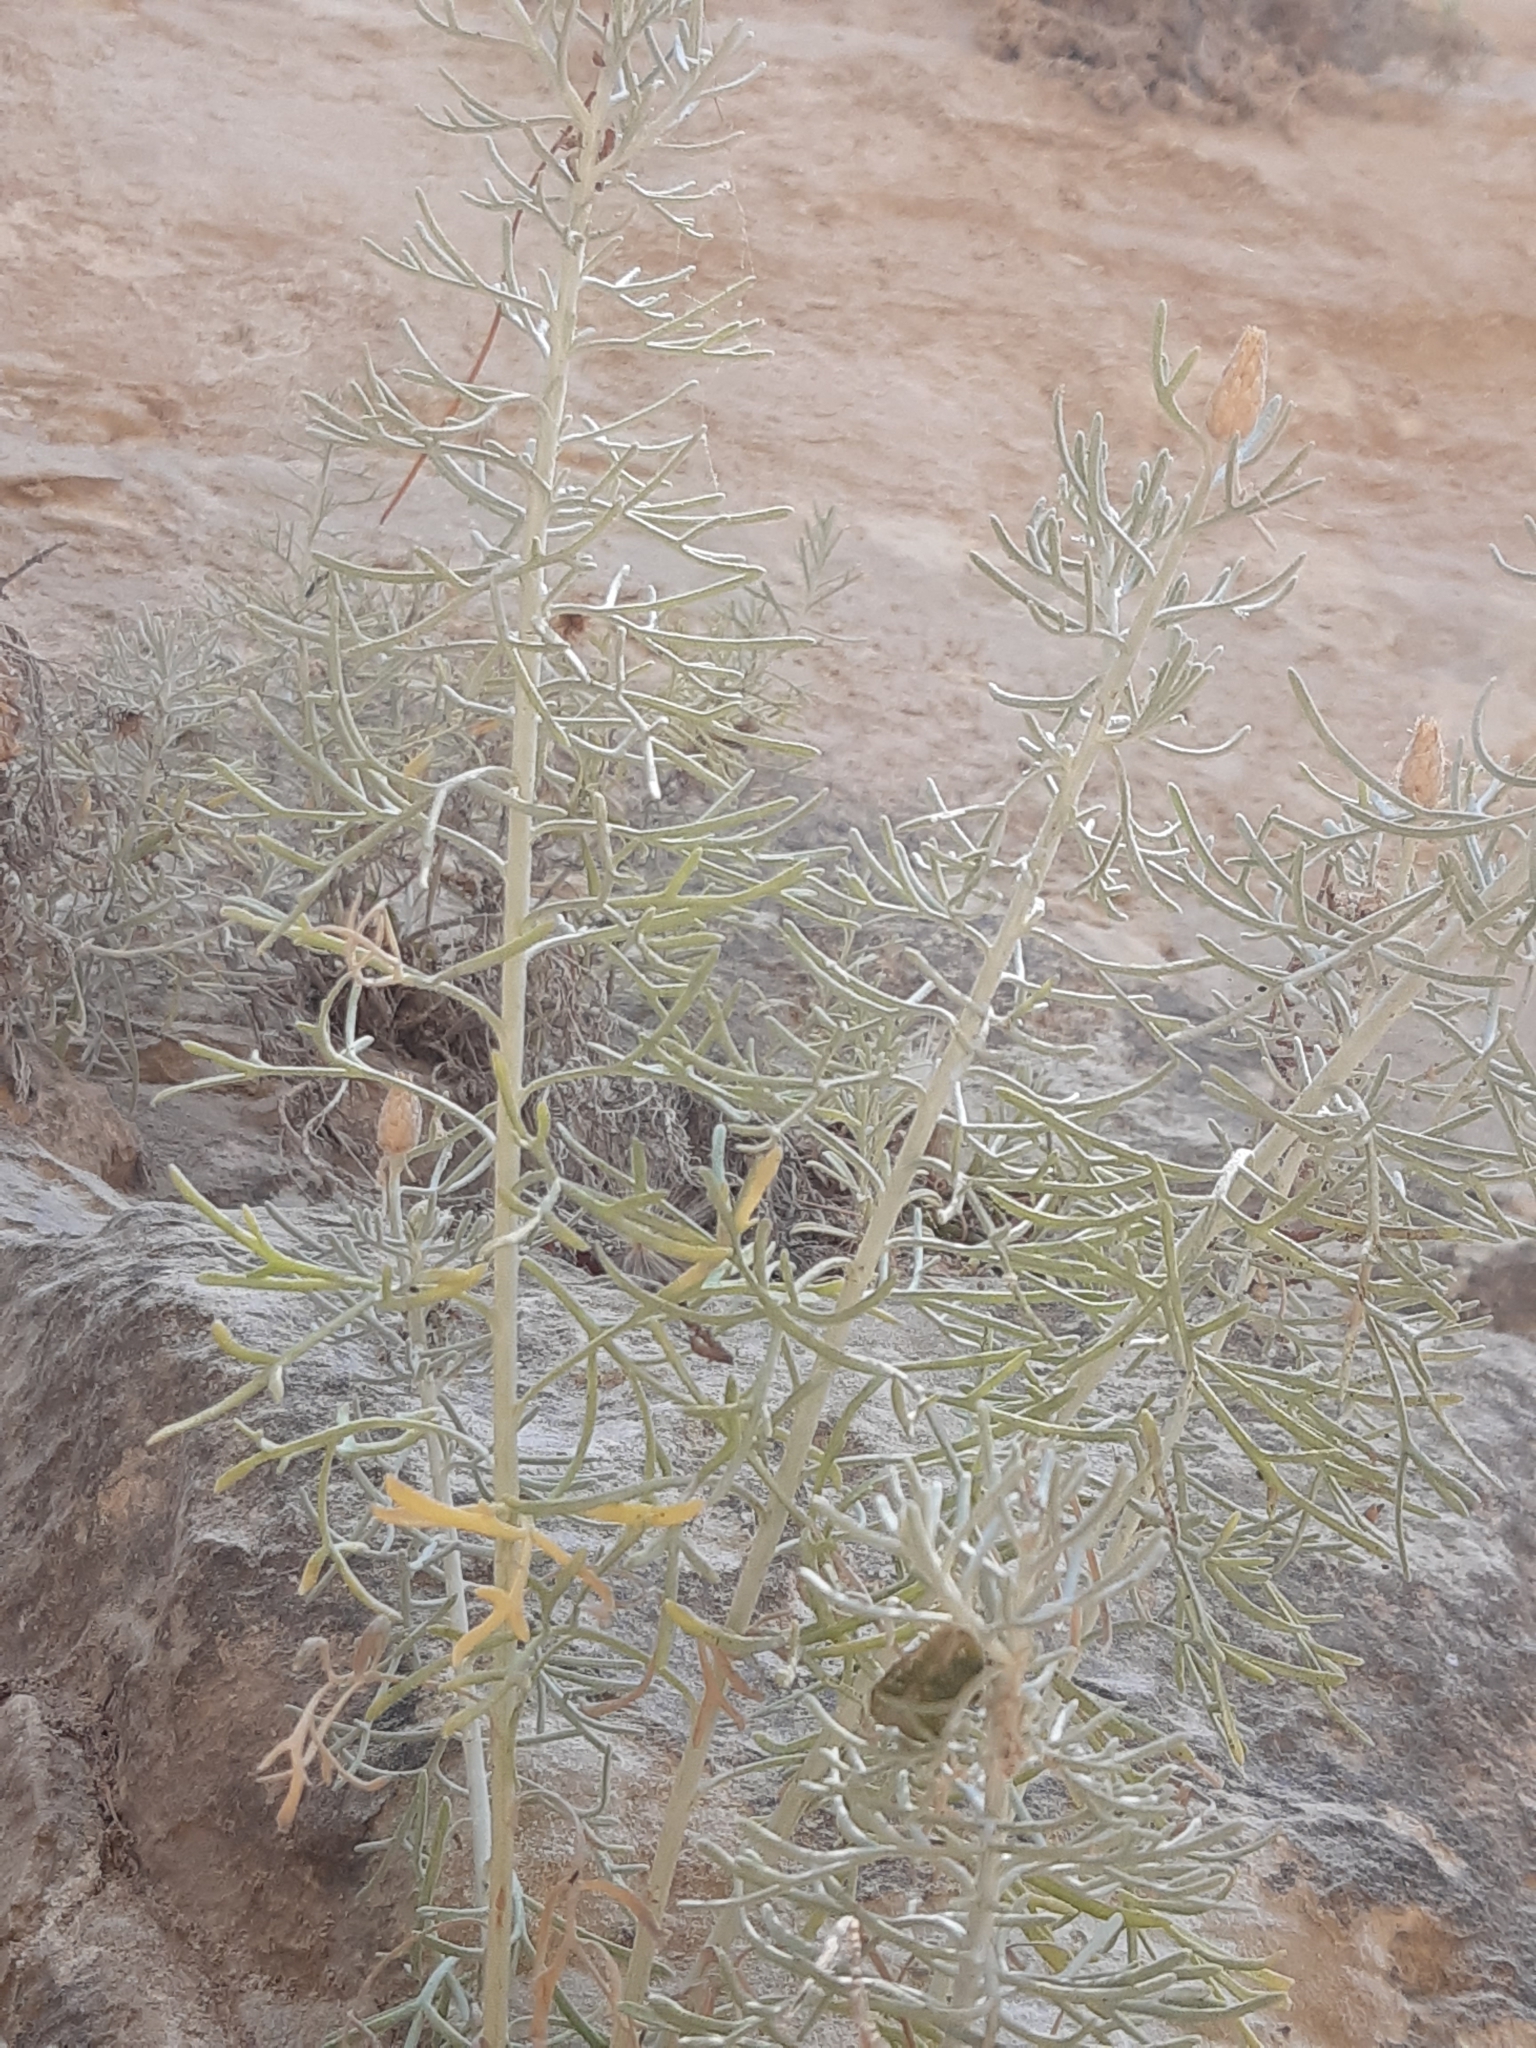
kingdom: Plantae
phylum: Tracheophyta
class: Magnoliopsida
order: Asterales
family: Asteraceae
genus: Centaurea
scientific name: Centaurea akamantis
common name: Akamas centaury
